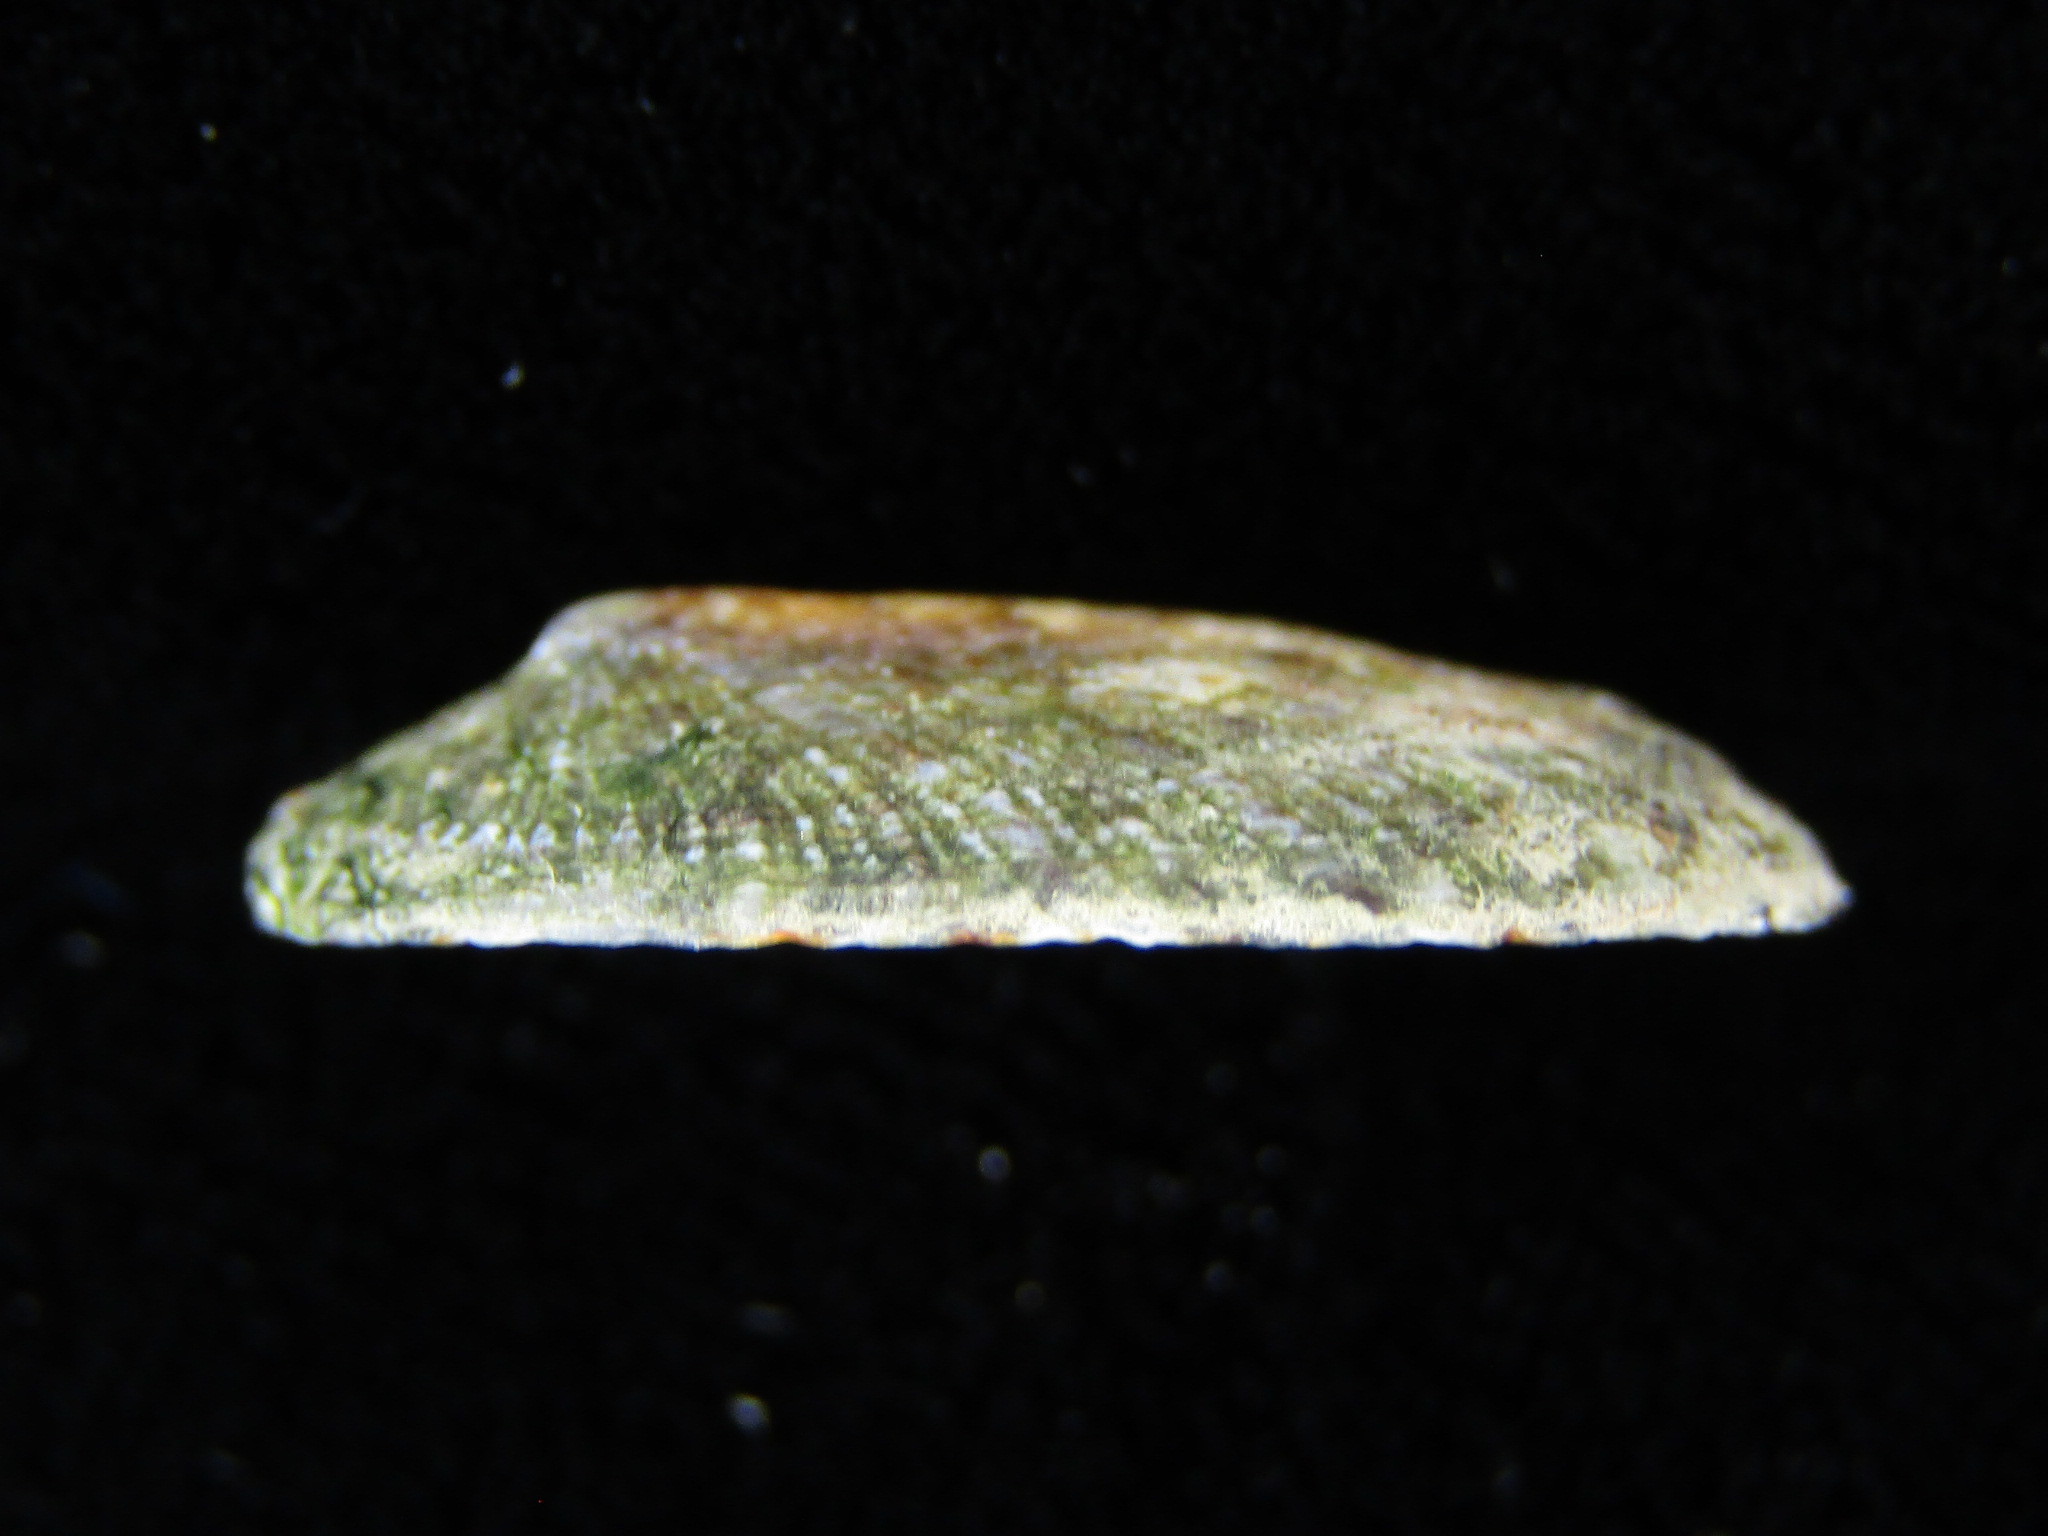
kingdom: Animalia
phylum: Mollusca
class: Gastropoda
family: Nacellidae
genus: Cellana
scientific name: Cellana toreuma
